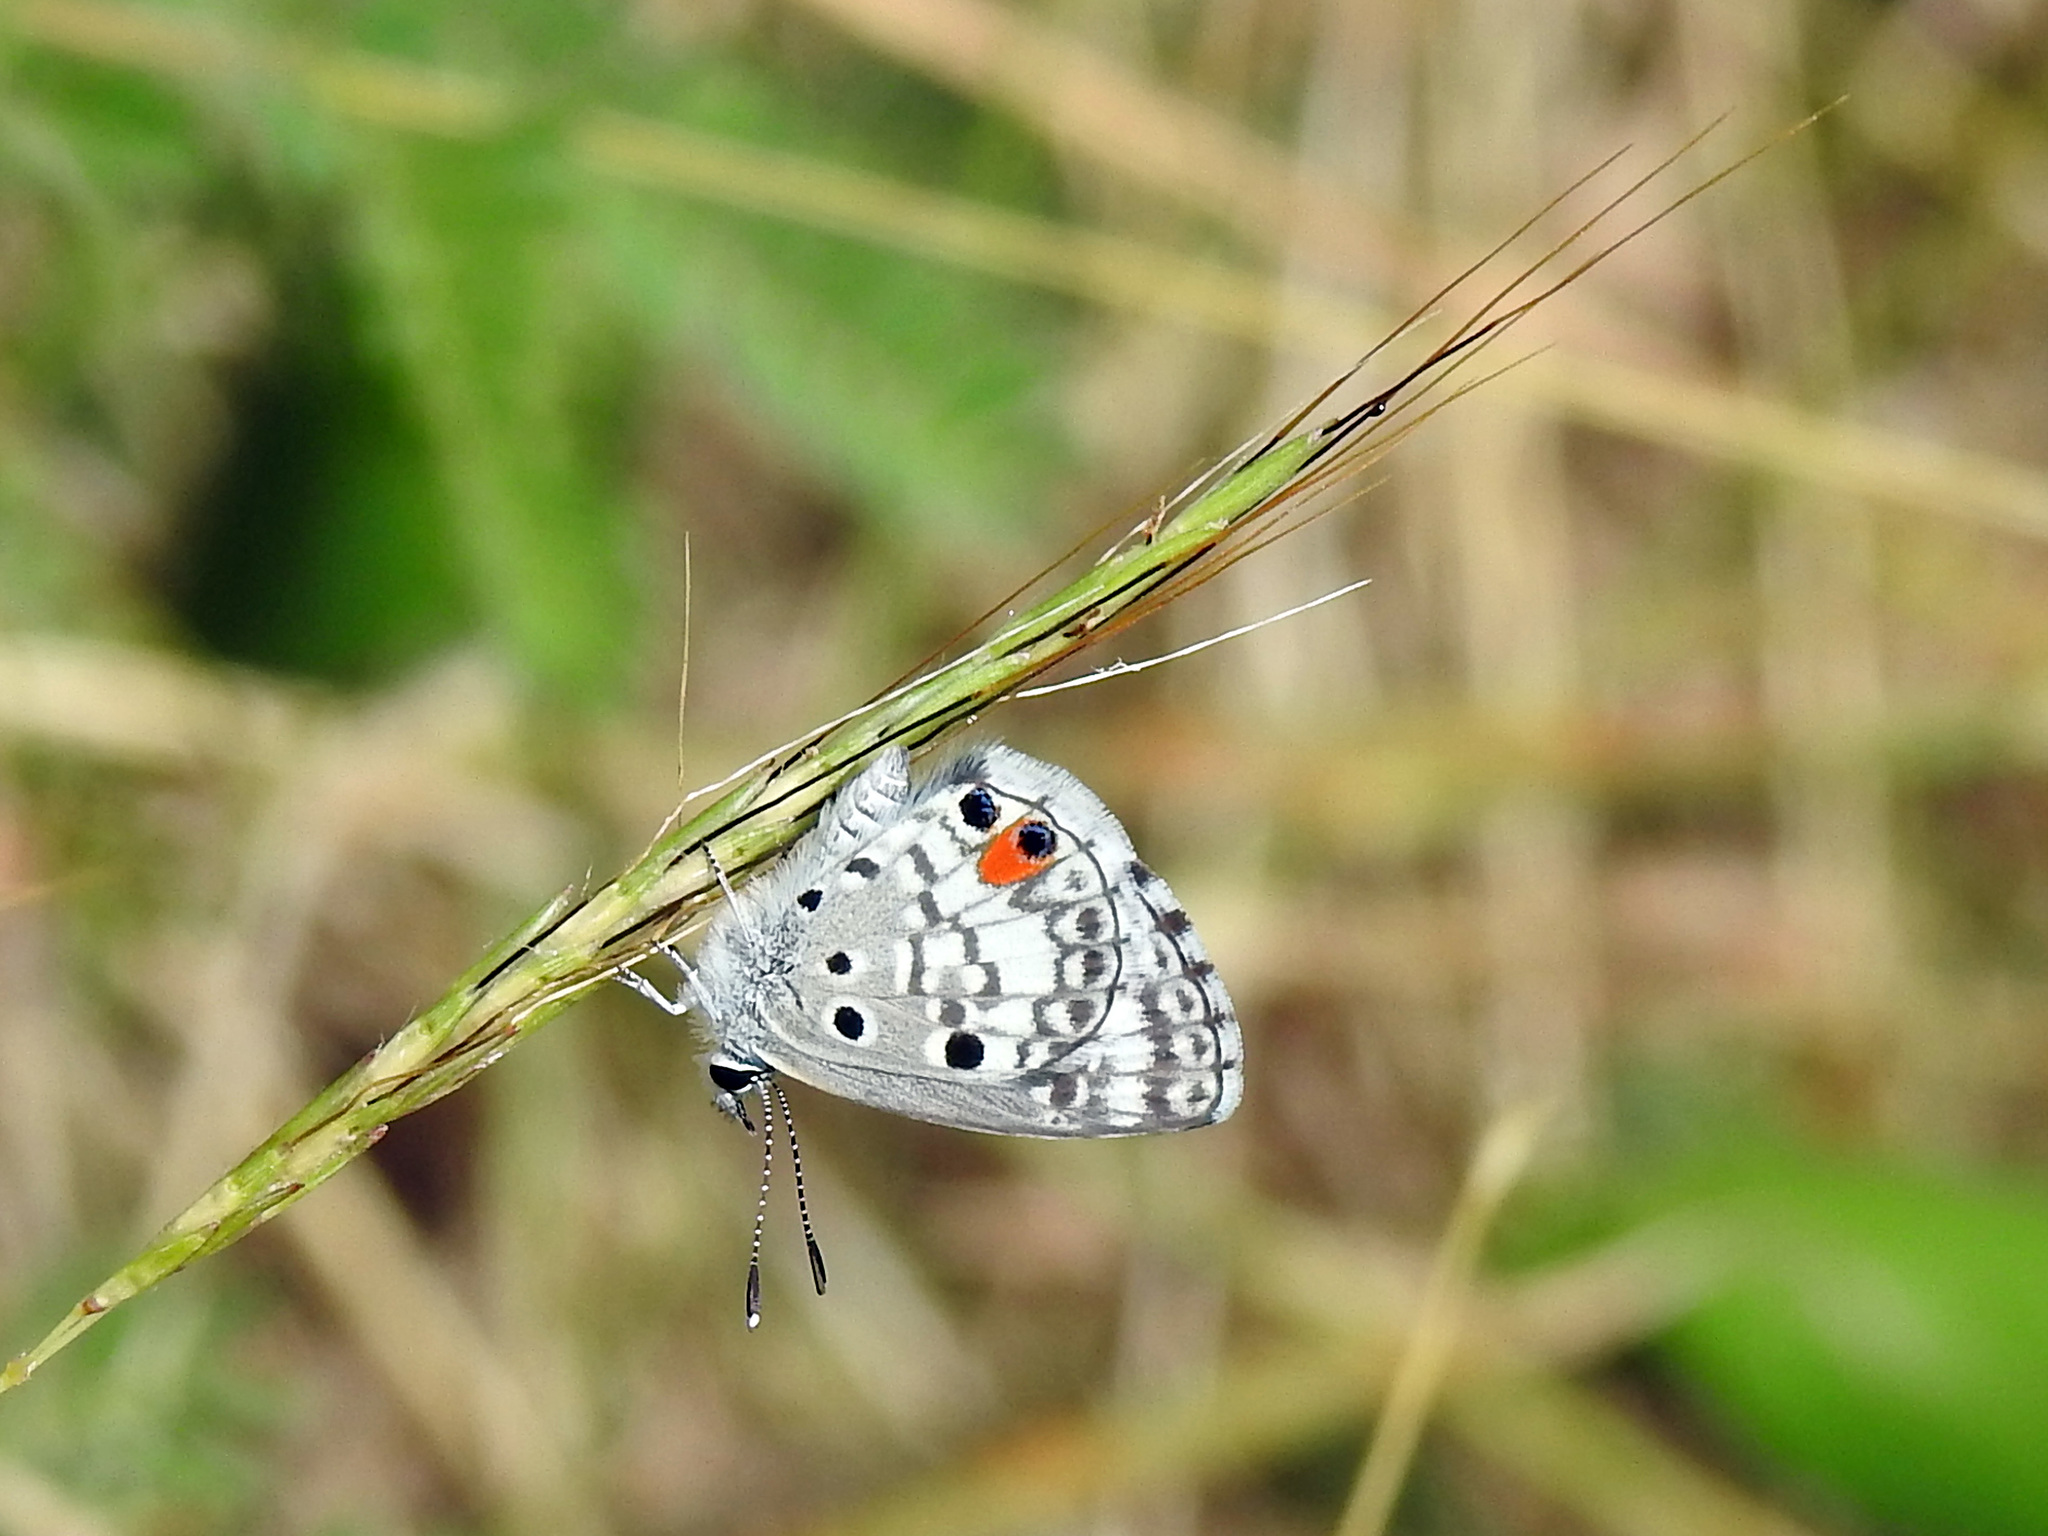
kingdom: Animalia
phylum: Arthropoda
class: Insecta
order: Lepidoptera
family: Lycaenidae
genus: Cyclargus
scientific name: Cyclargus ammon
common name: Blue butterfly
